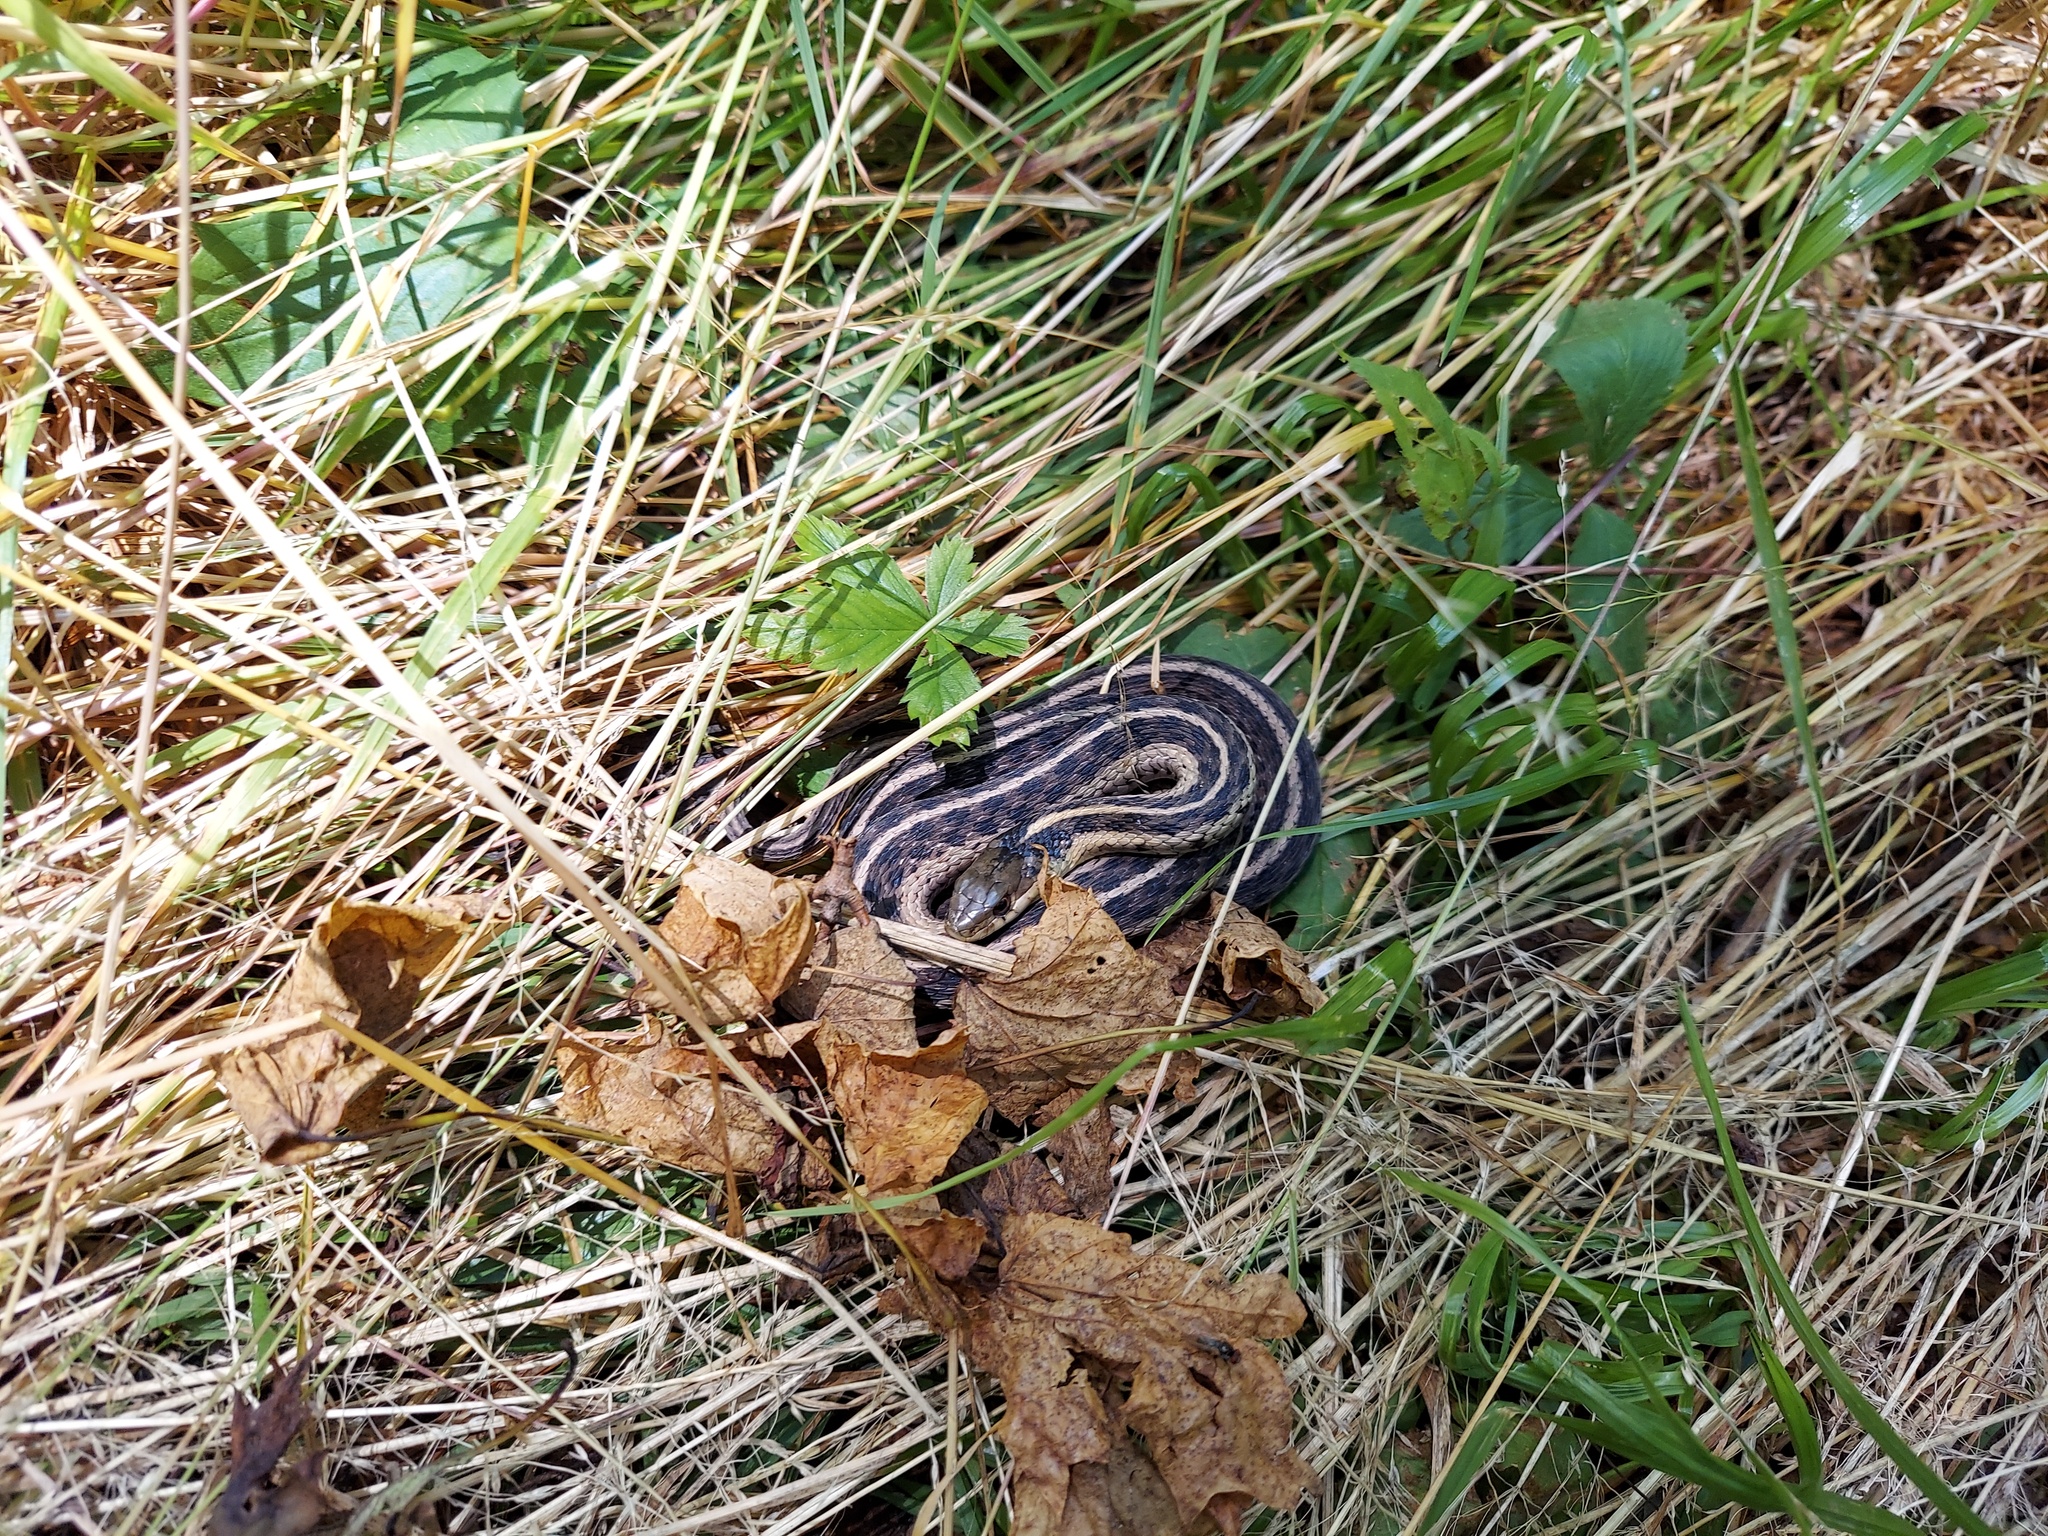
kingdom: Animalia
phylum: Chordata
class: Squamata
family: Colubridae
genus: Thamnophis
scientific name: Thamnophis sirtalis
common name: Common garter snake
